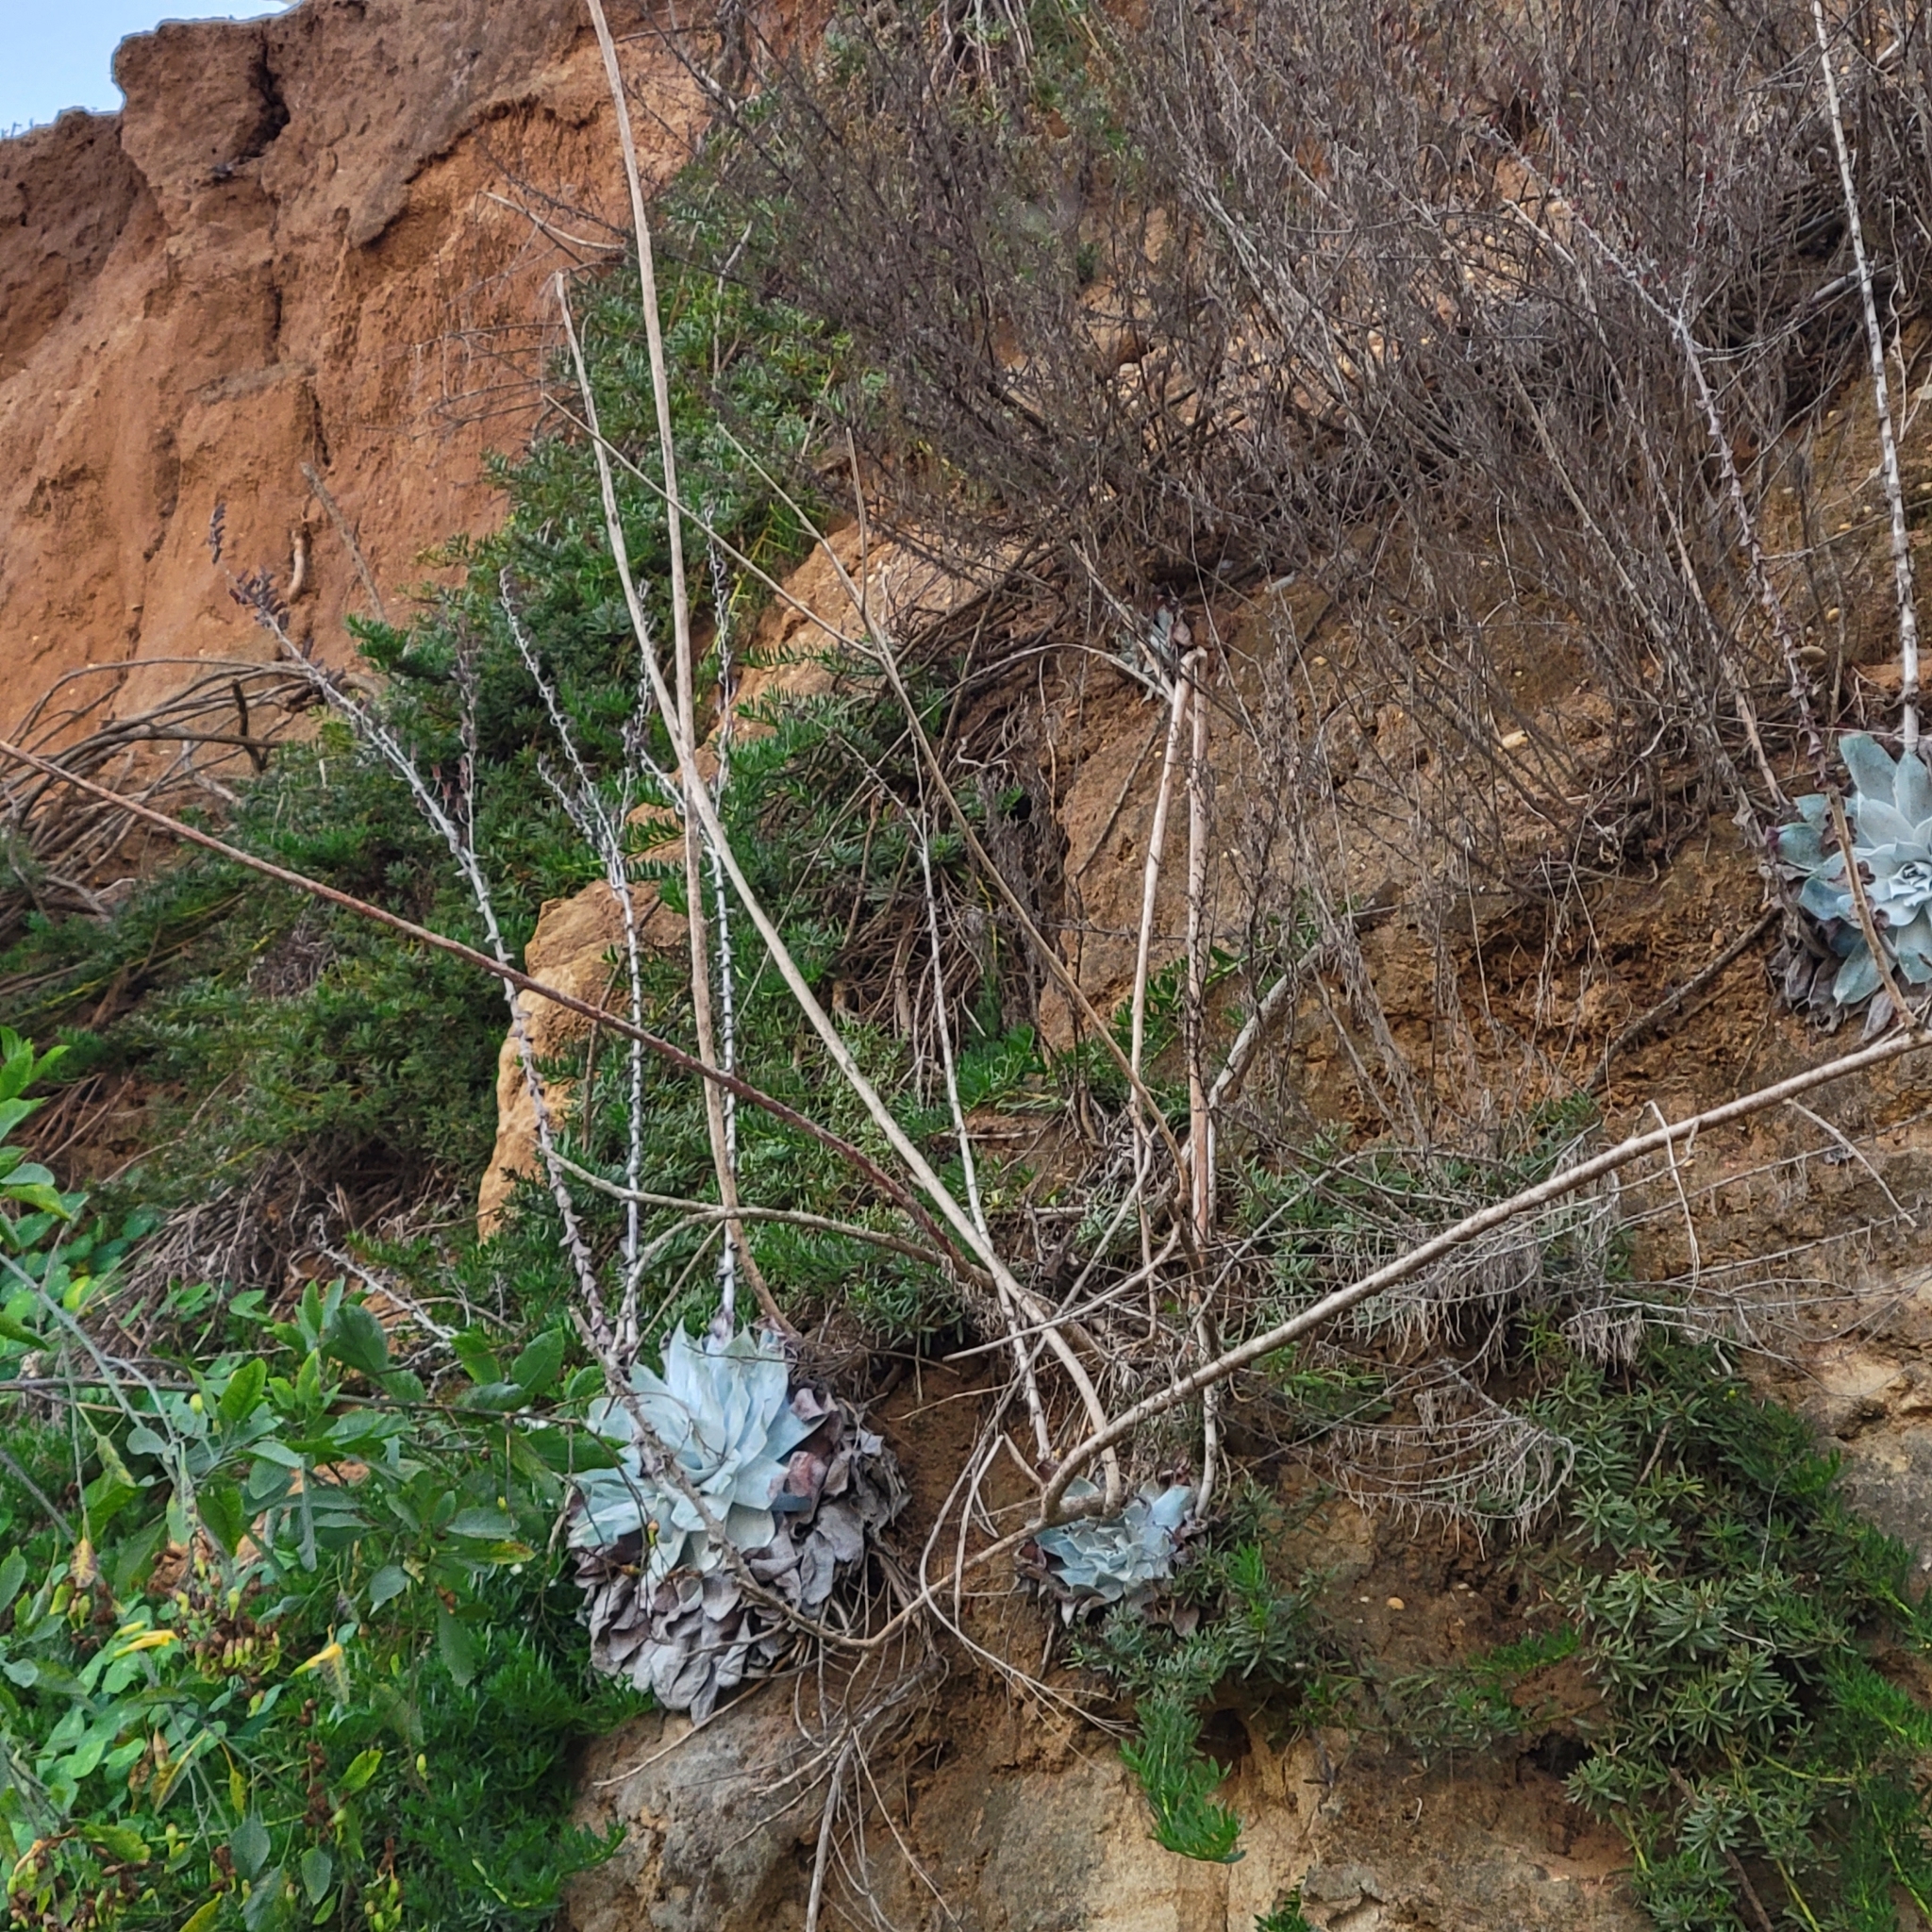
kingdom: Plantae
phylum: Tracheophyta
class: Magnoliopsida
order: Saxifragales
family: Crassulaceae
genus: Dudleya
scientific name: Dudleya pulverulenta
